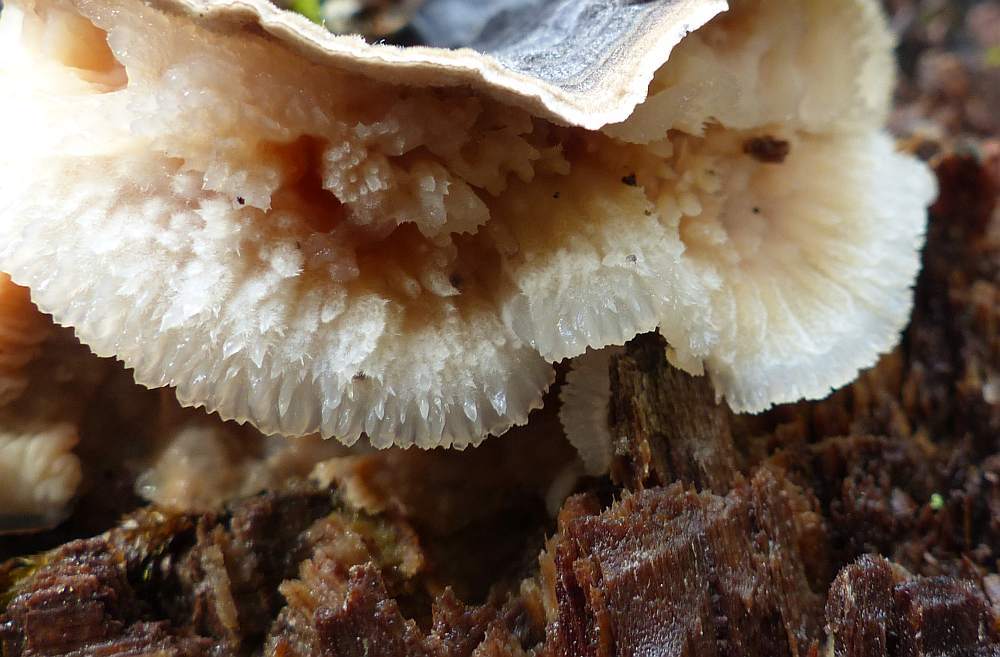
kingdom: Fungi
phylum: Basidiomycota
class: Agaricomycetes
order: Polyporales
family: Meruliaceae
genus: Phlebia
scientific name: Phlebia tremellosa
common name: Jelly rot
